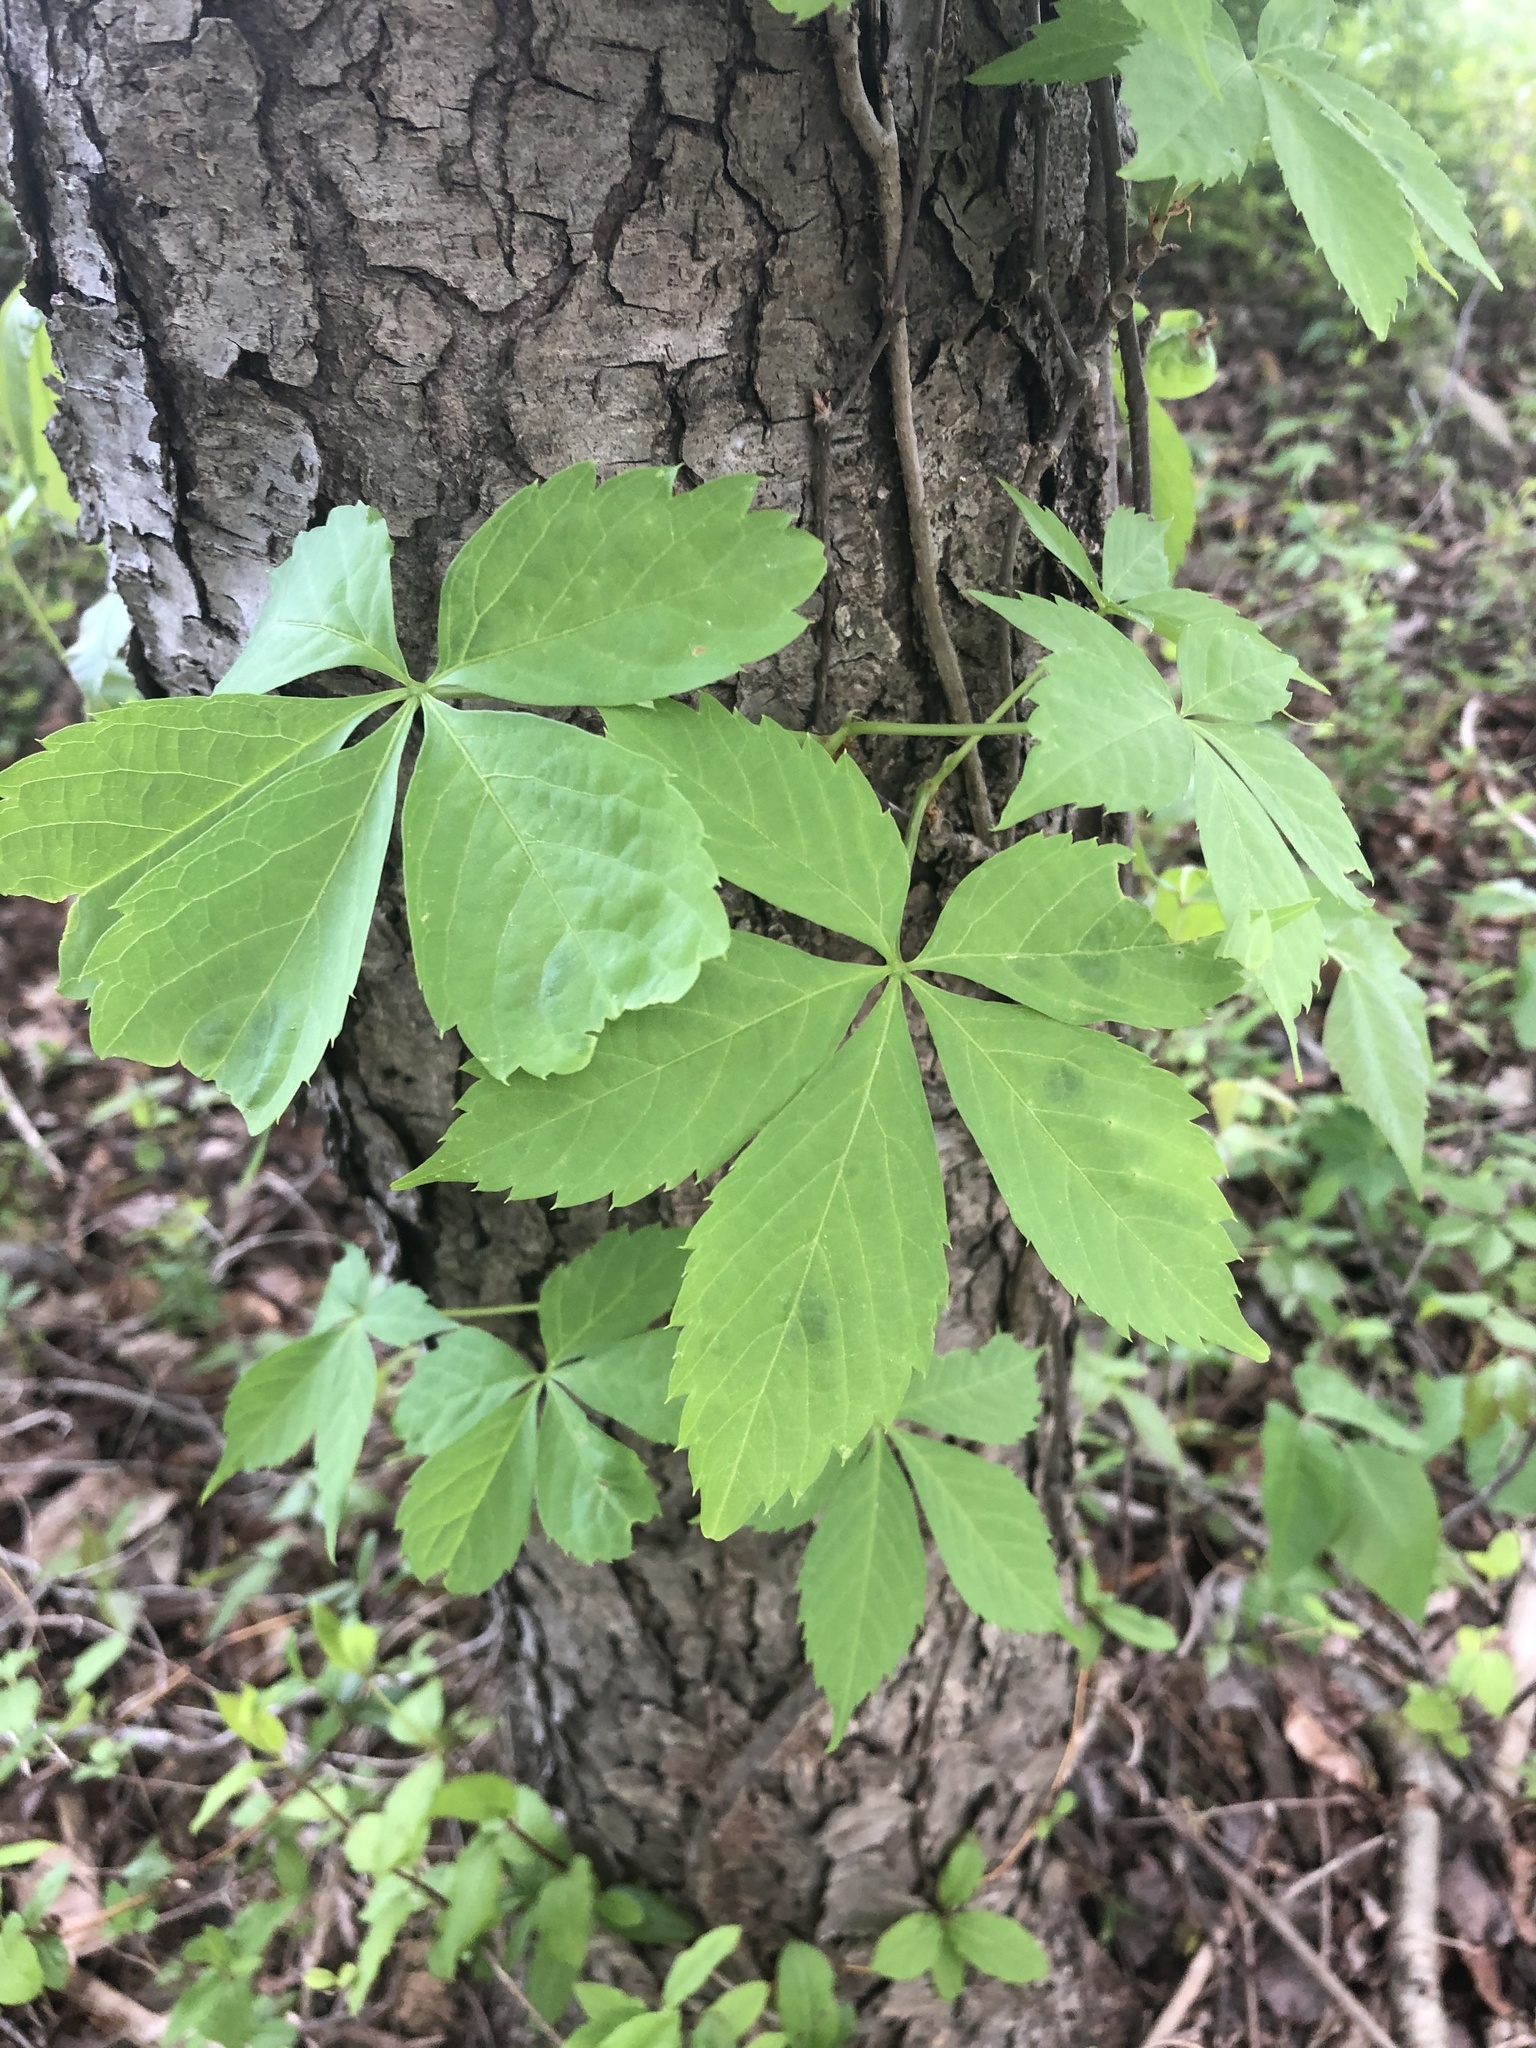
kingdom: Plantae
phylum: Tracheophyta
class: Magnoliopsida
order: Vitales
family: Vitaceae
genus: Parthenocissus
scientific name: Parthenocissus quinquefolia
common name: Virginia-creeper
